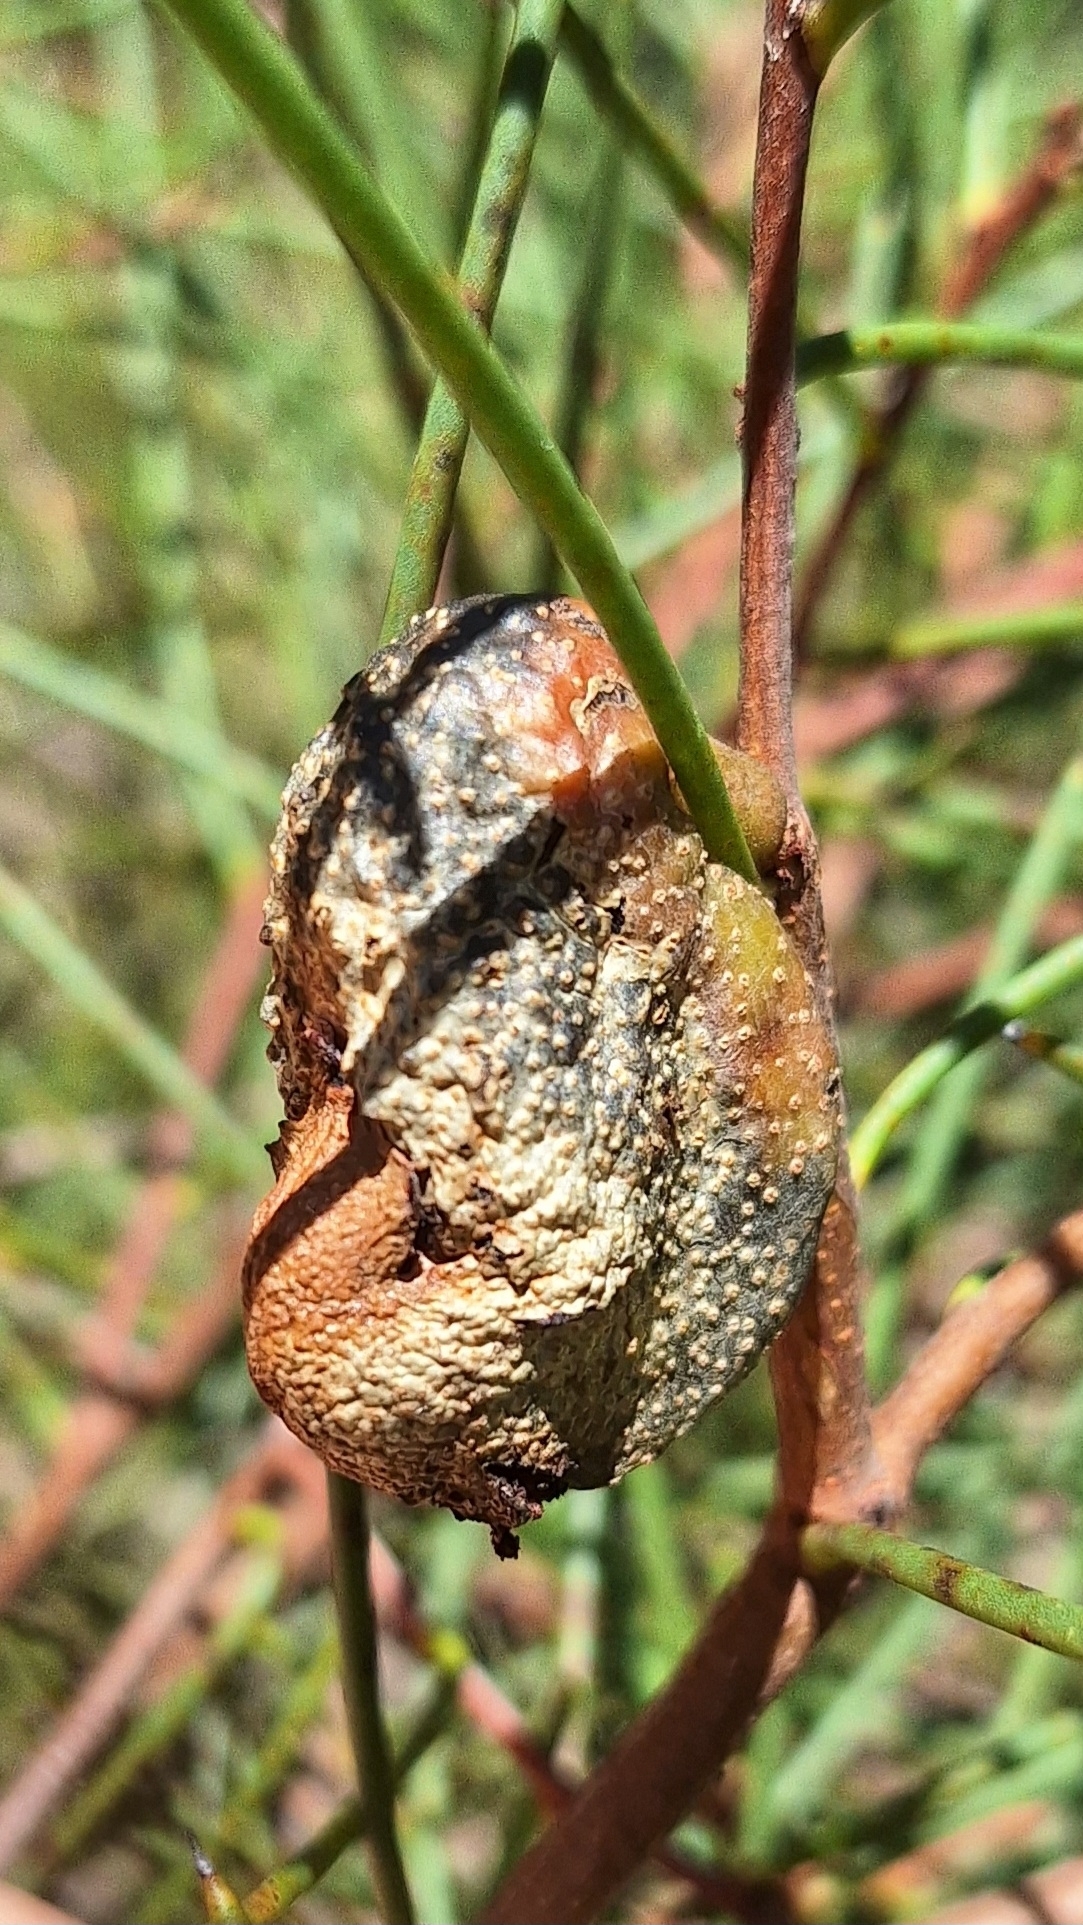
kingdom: Plantae
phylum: Tracheophyta
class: Magnoliopsida
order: Proteales
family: Proteaceae
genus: Hakea
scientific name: Hakea rostrata
